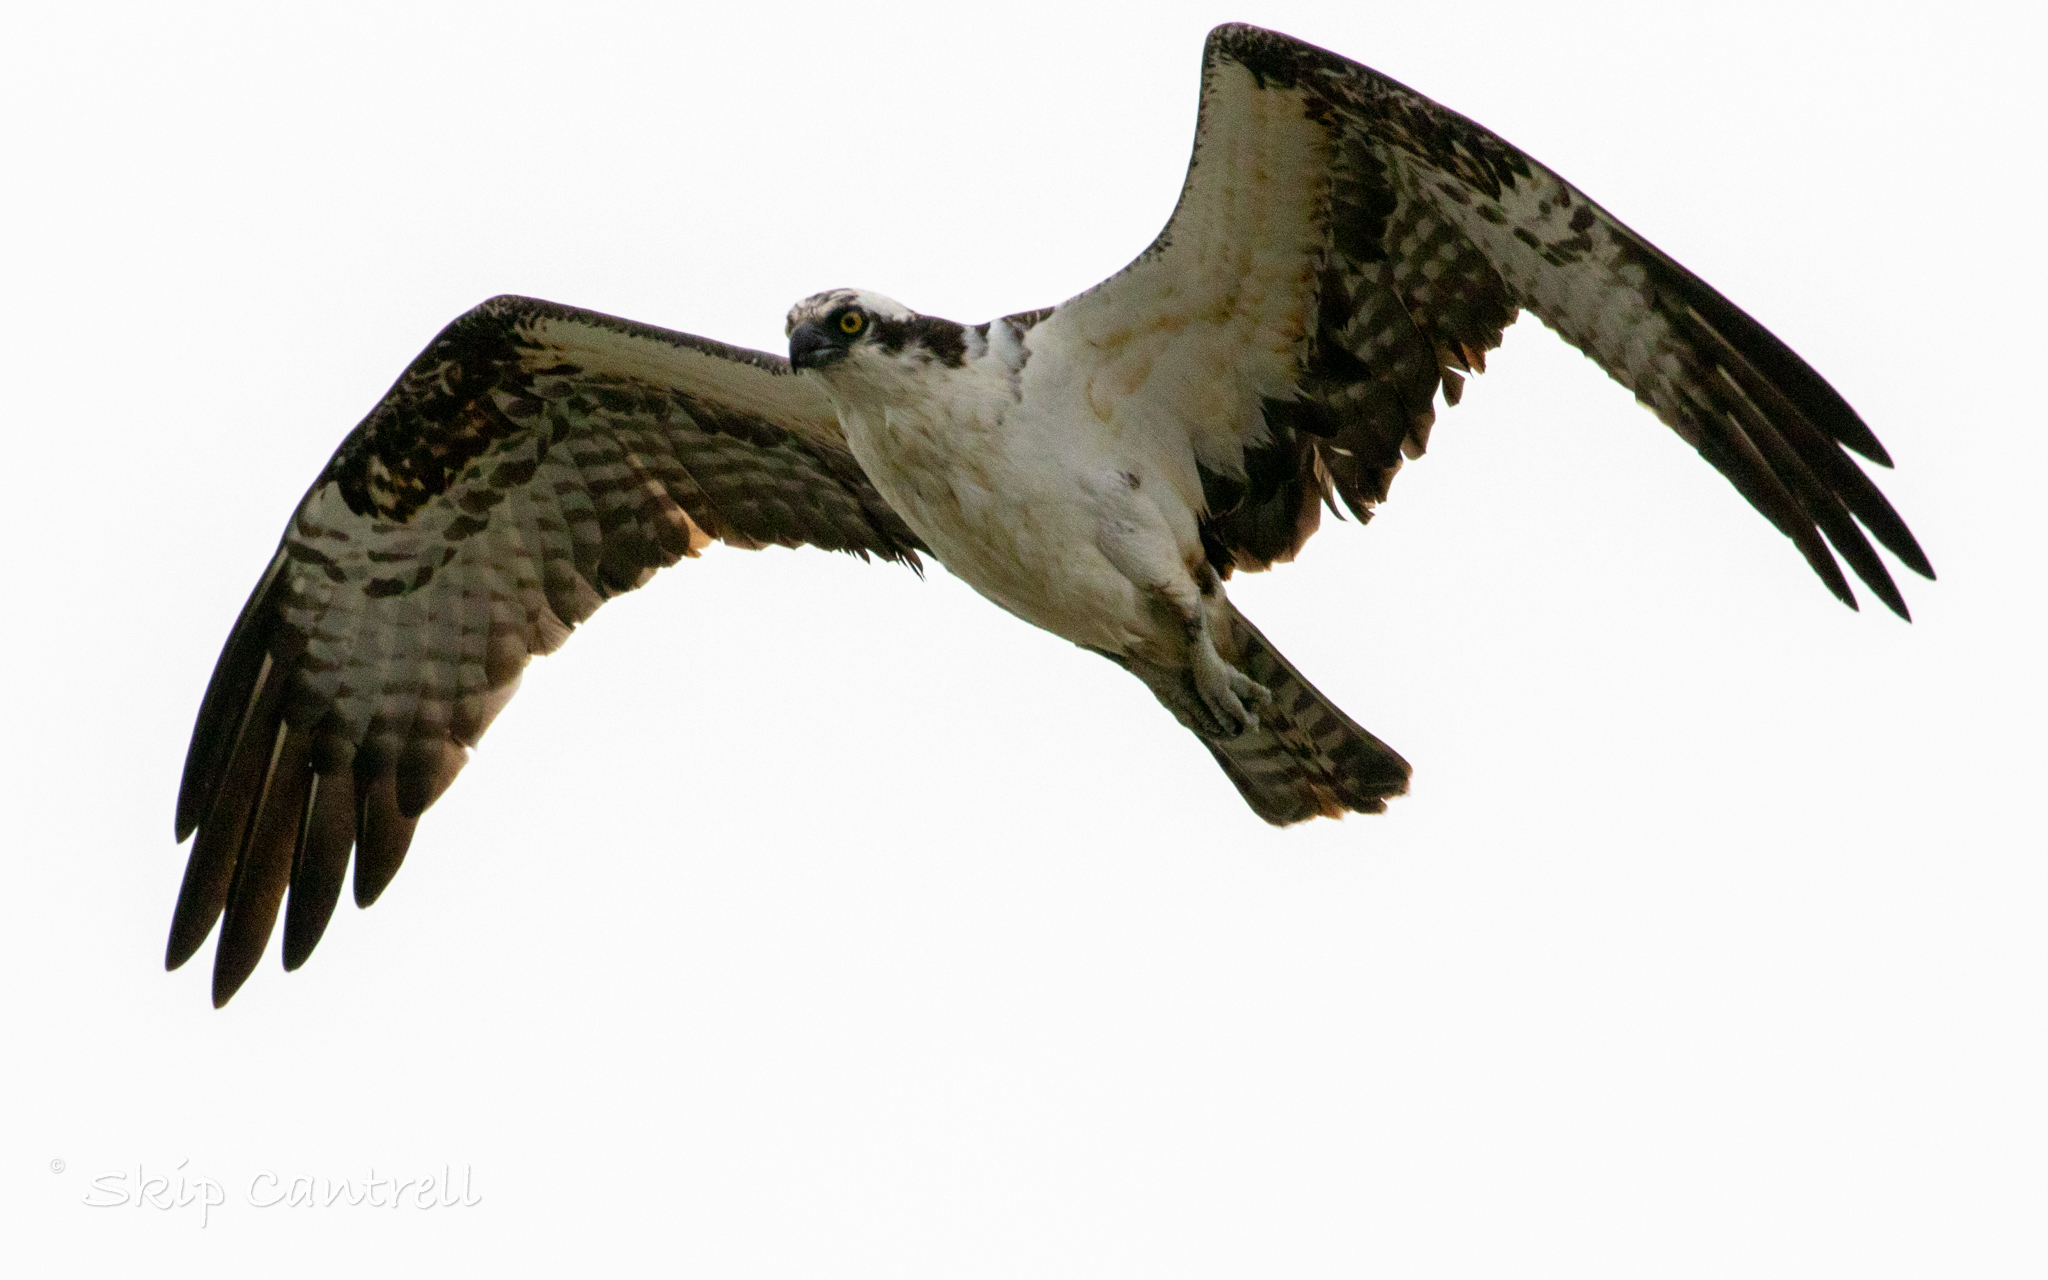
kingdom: Animalia
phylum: Chordata
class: Aves
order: Accipitriformes
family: Pandionidae
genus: Pandion
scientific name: Pandion haliaetus
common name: Osprey
